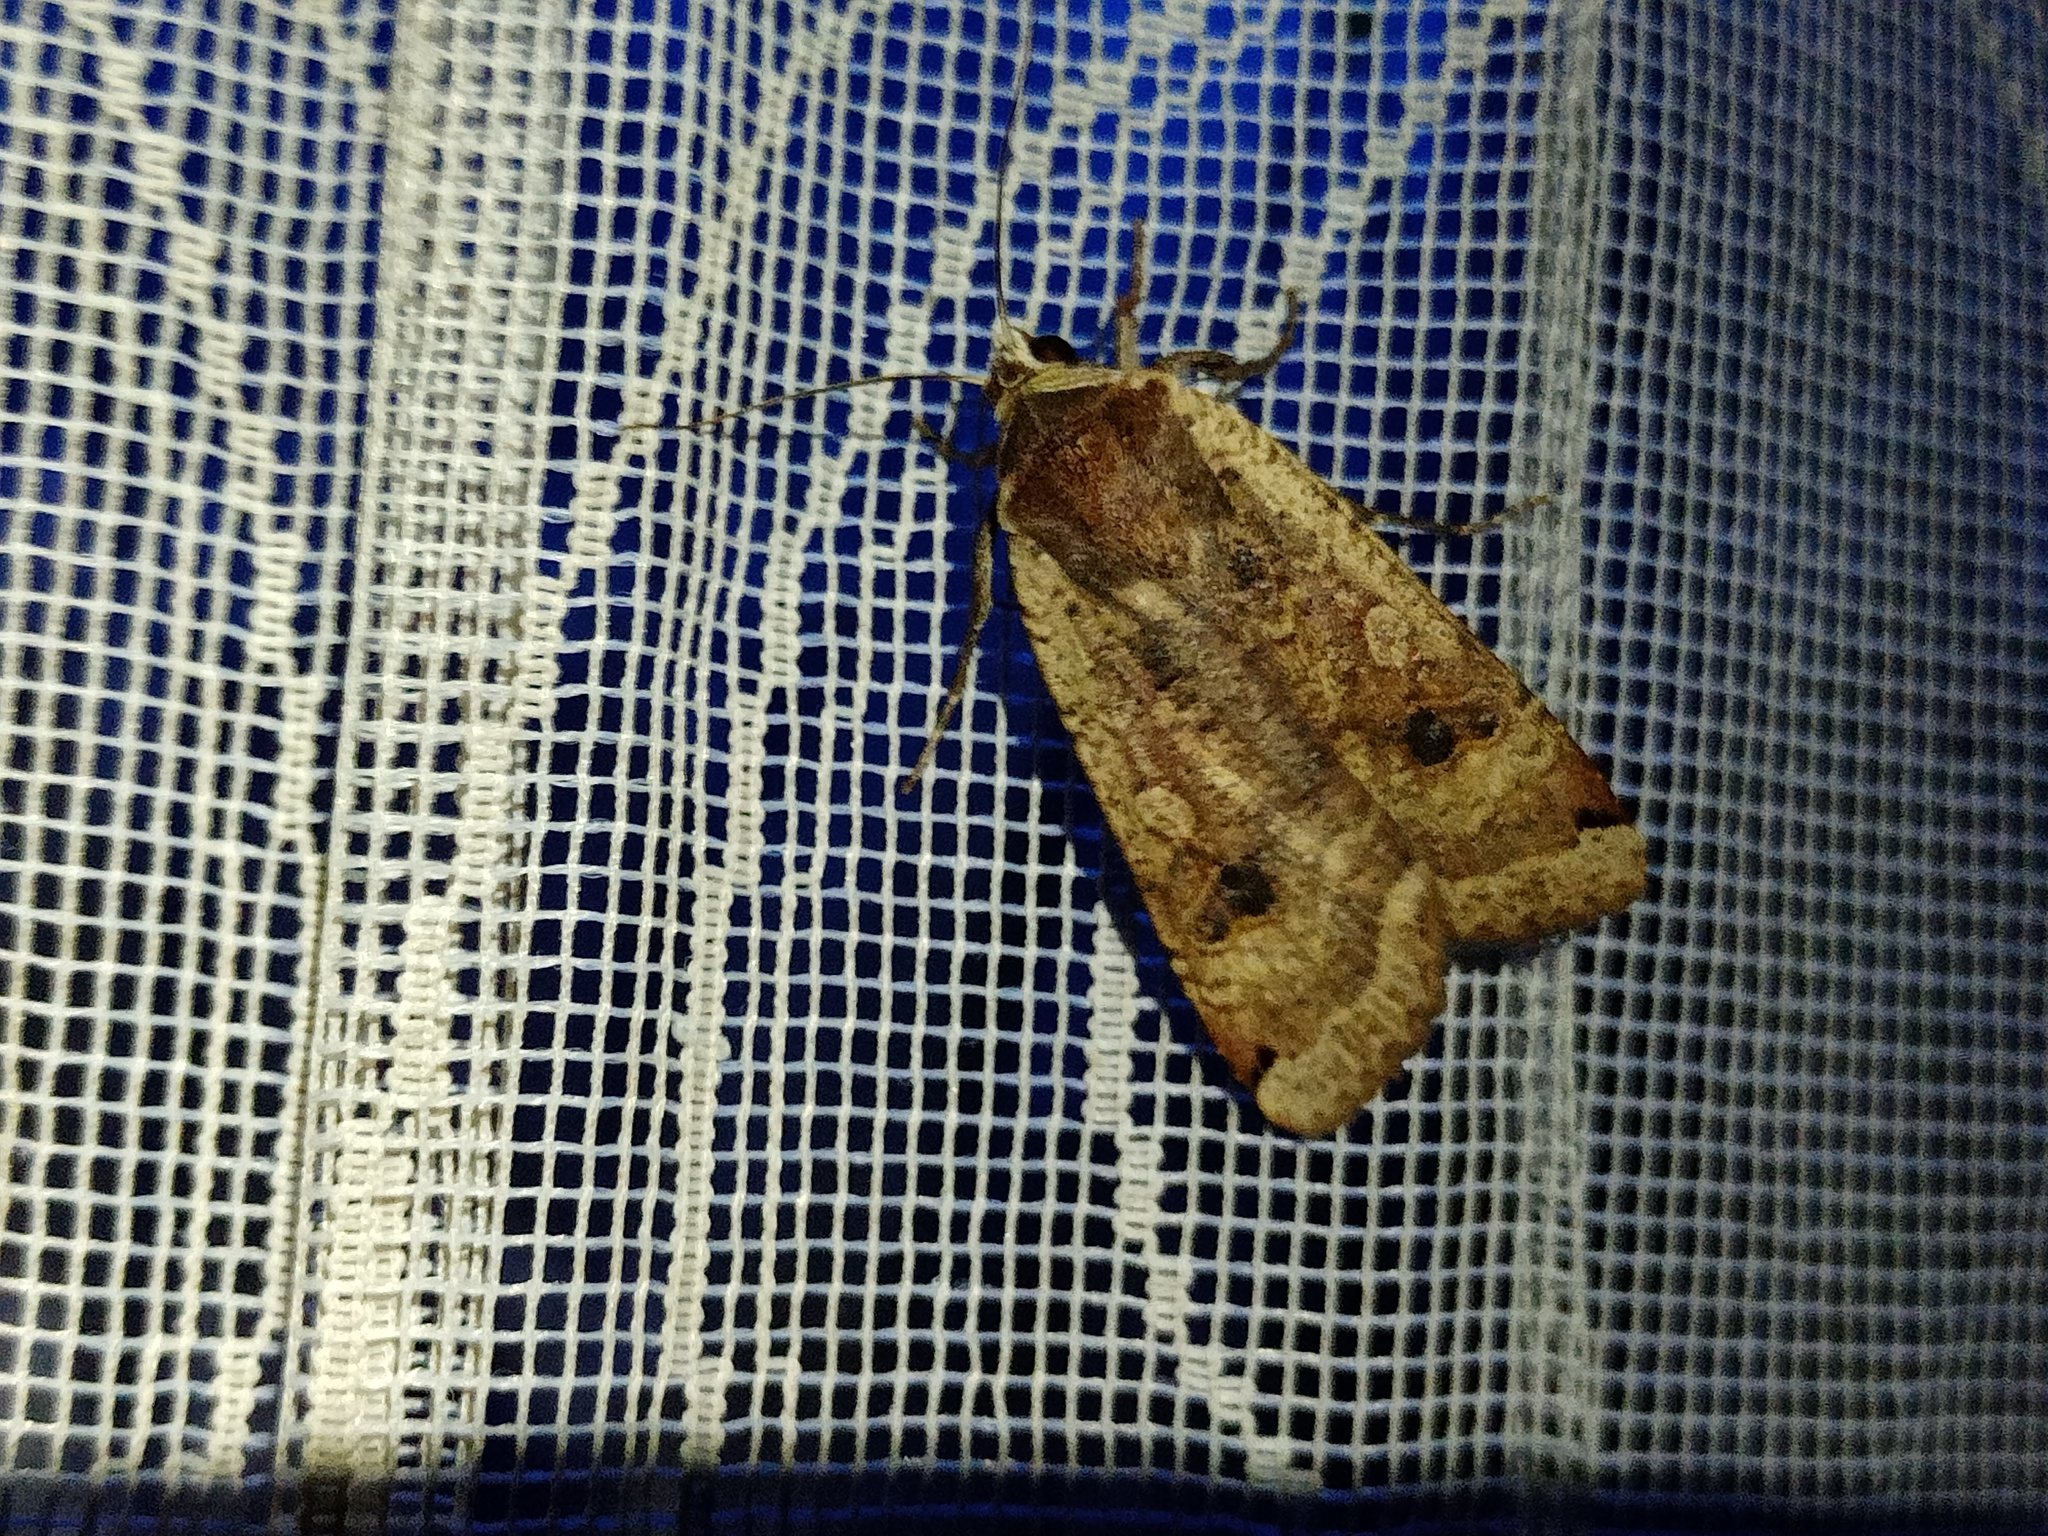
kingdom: Animalia
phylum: Arthropoda
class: Insecta
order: Lepidoptera
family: Noctuidae
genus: Noctua
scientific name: Noctua pronuba
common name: Large yellow underwing
